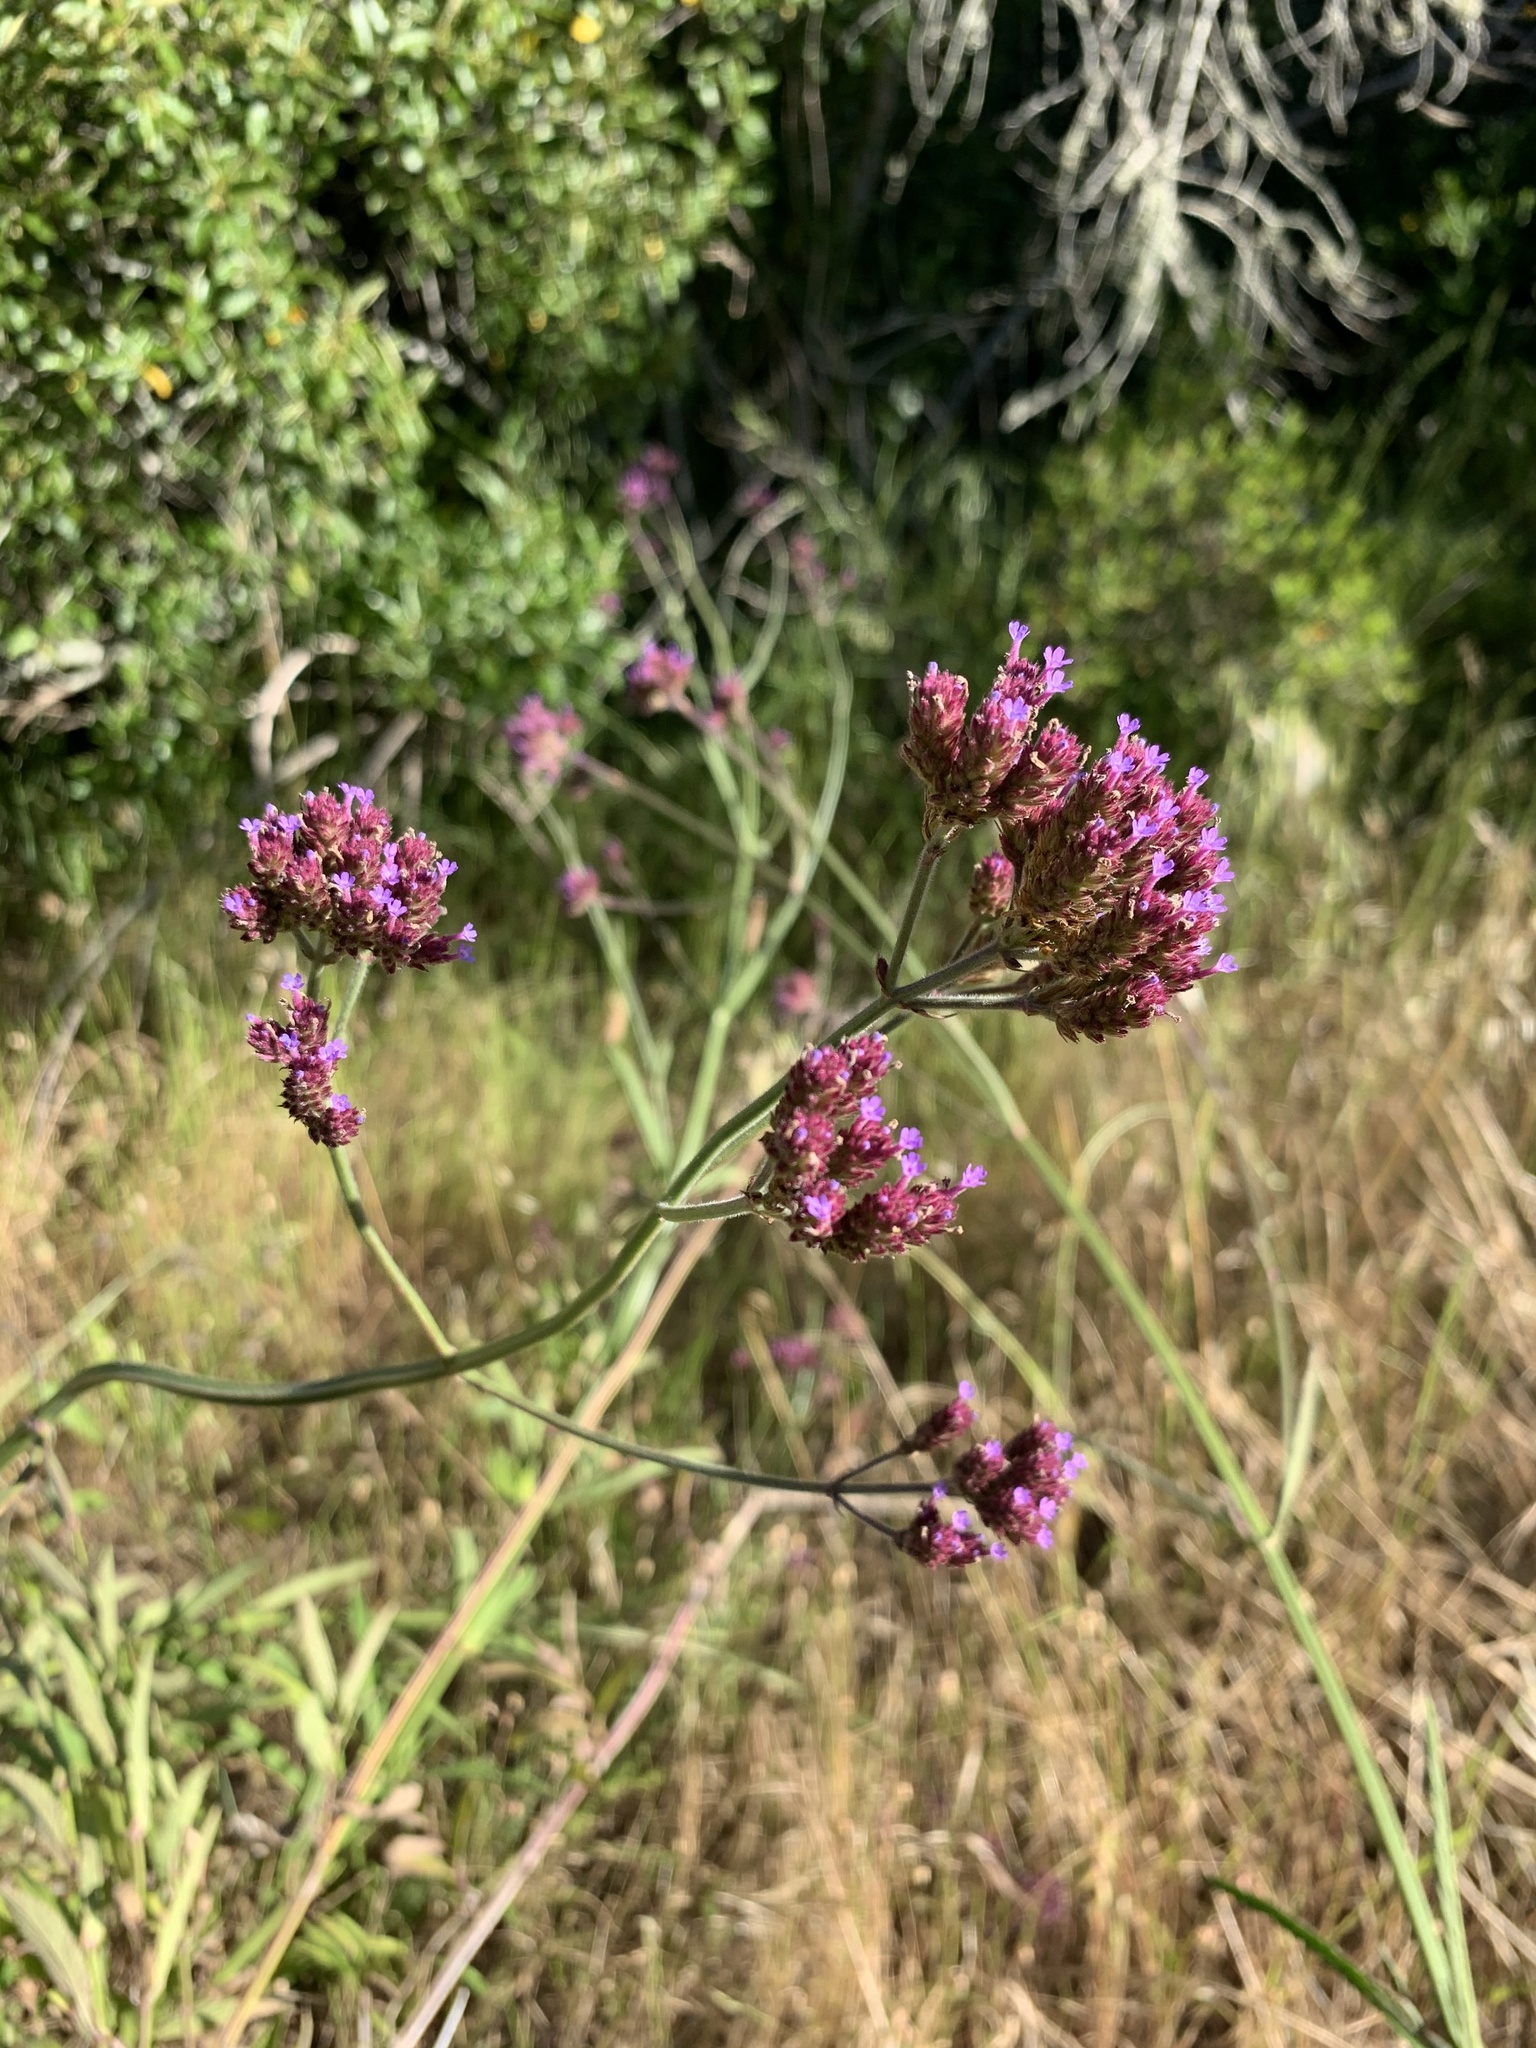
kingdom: Plantae
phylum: Tracheophyta
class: Magnoliopsida
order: Lamiales
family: Verbenaceae
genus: Verbena
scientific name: Verbena incompta
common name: Purpletop vervain
